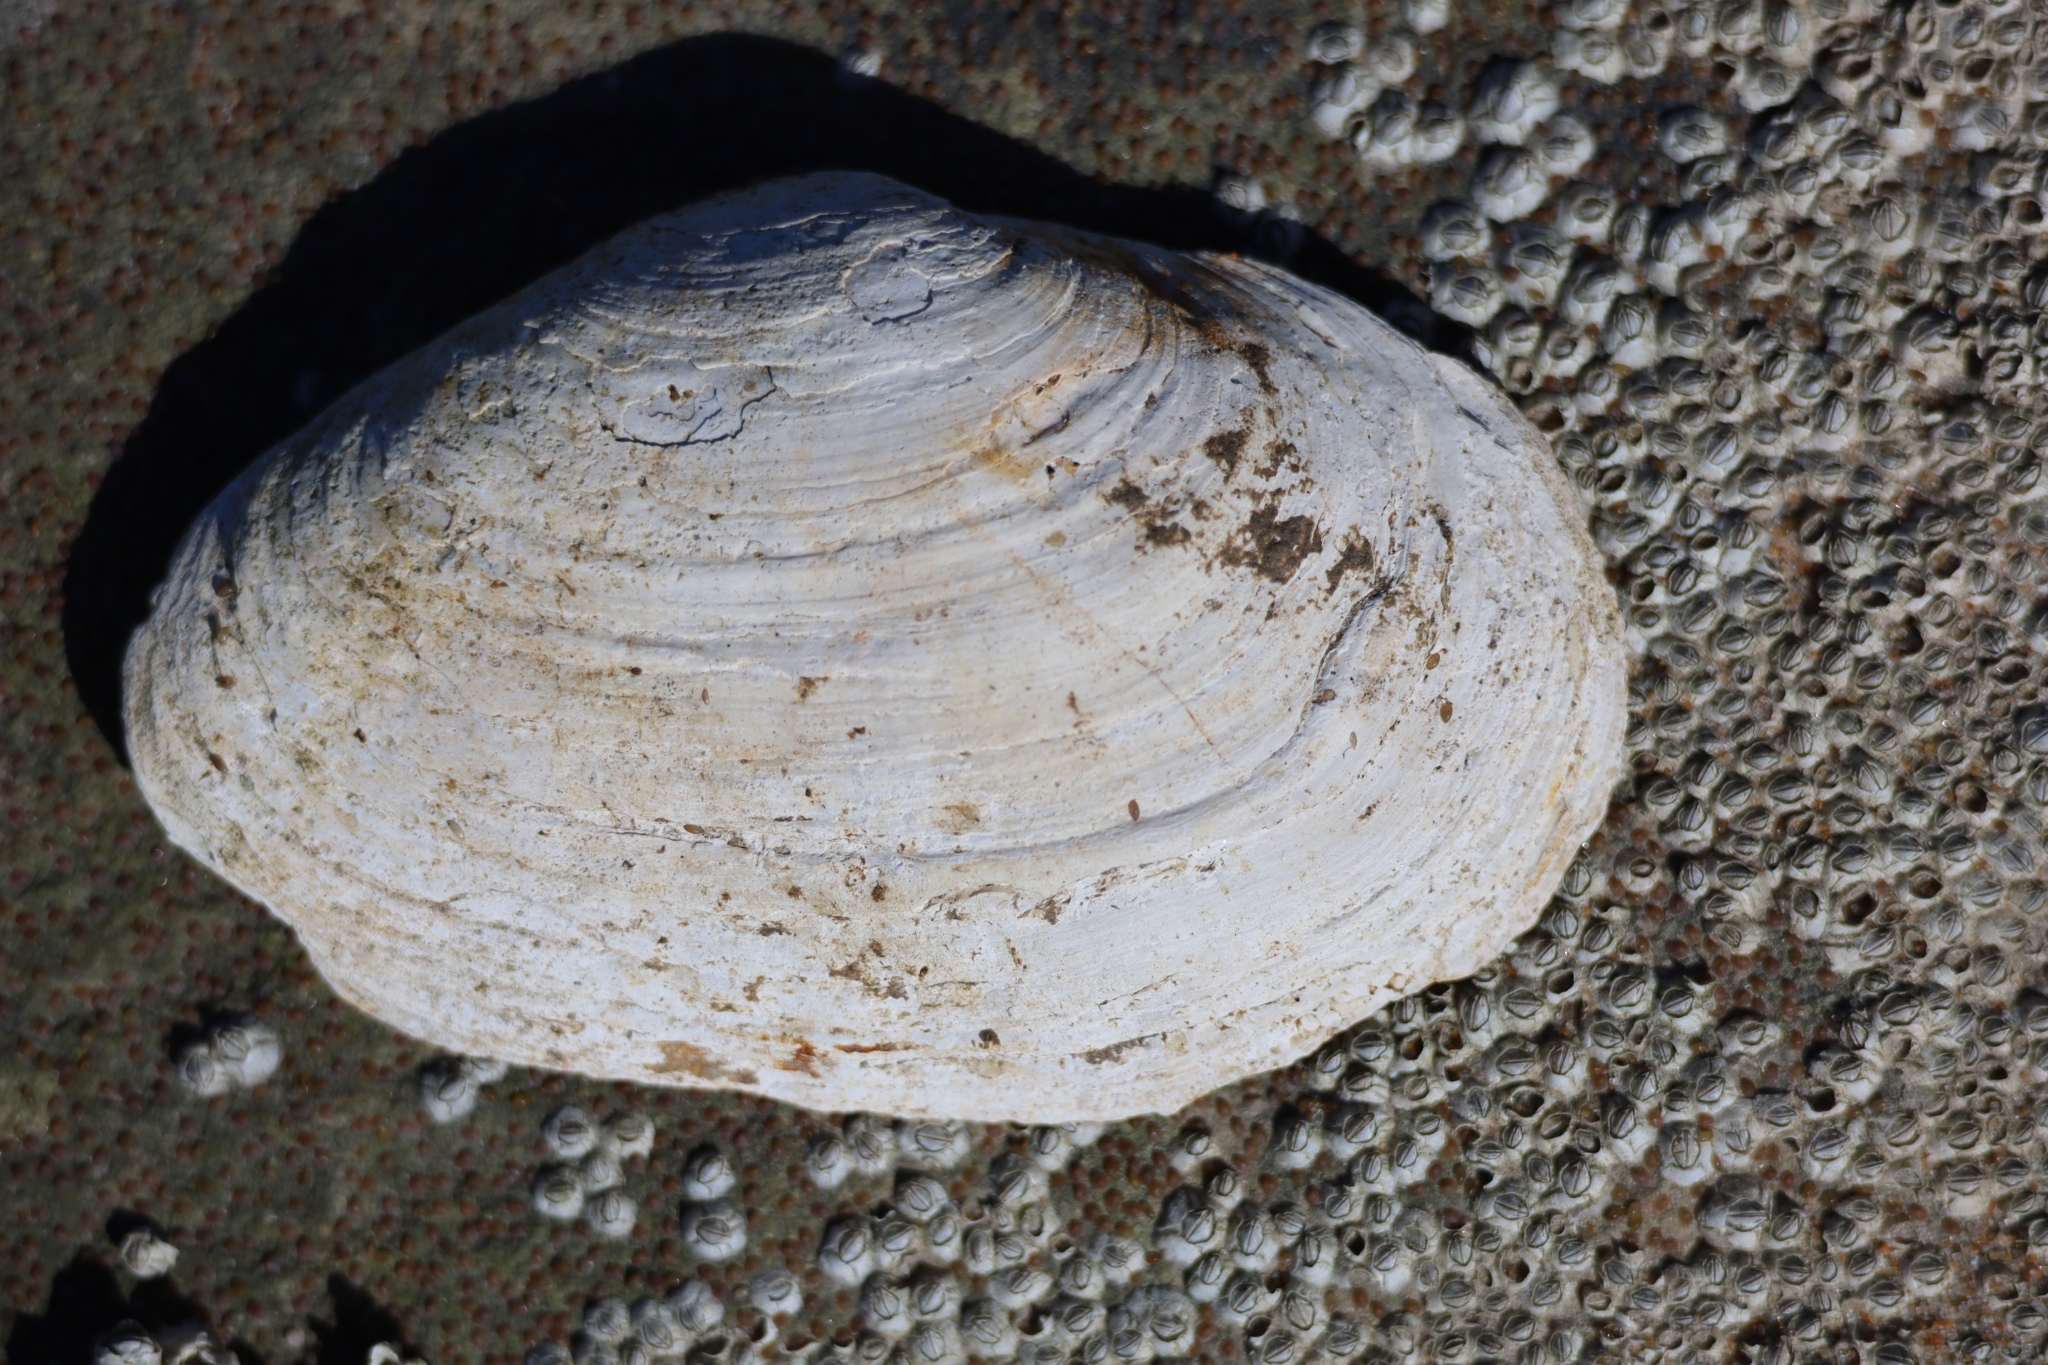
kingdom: Animalia
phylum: Mollusca
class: Bivalvia
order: Myida
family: Myidae
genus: Mya
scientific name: Mya arenaria
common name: Soft-shelled clam
